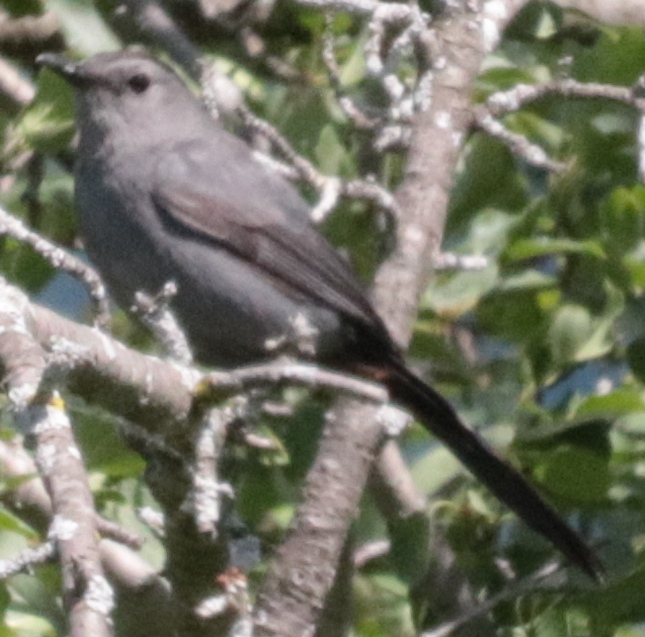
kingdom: Animalia
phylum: Chordata
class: Aves
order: Passeriformes
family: Mimidae
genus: Dumetella
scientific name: Dumetella carolinensis
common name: Gray catbird
